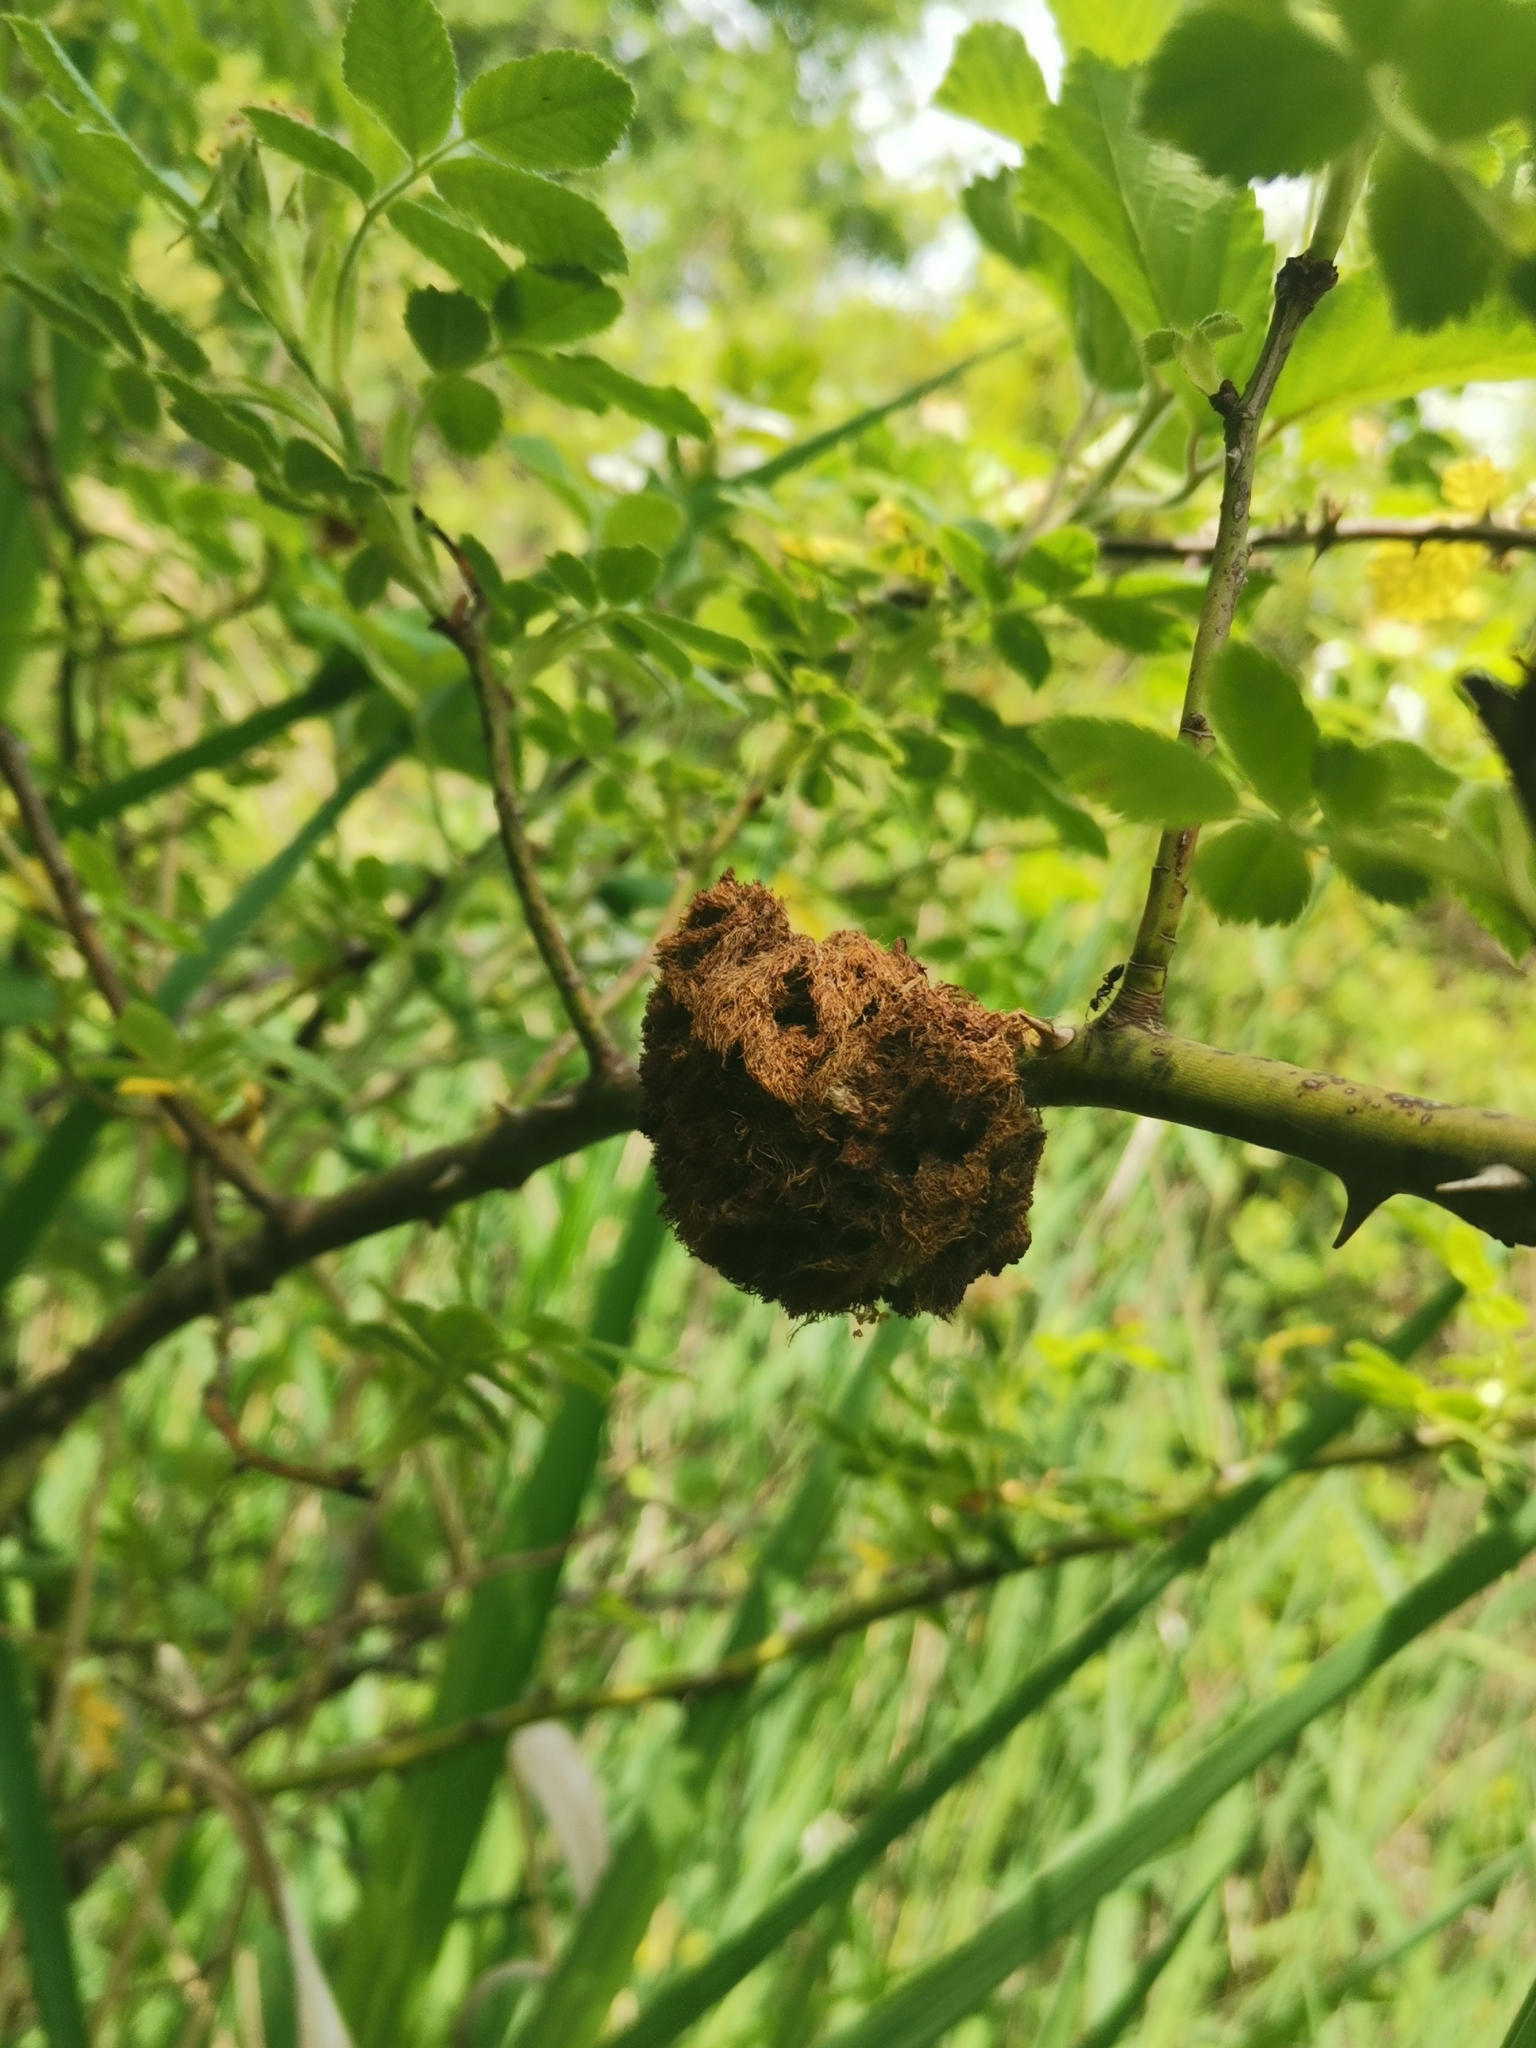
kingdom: Animalia
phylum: Arthropoda
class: Insecta
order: Hymenoptera
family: Cynipidae
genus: Diplolepis
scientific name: Diplolepis rosae
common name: Bedeguar gall
